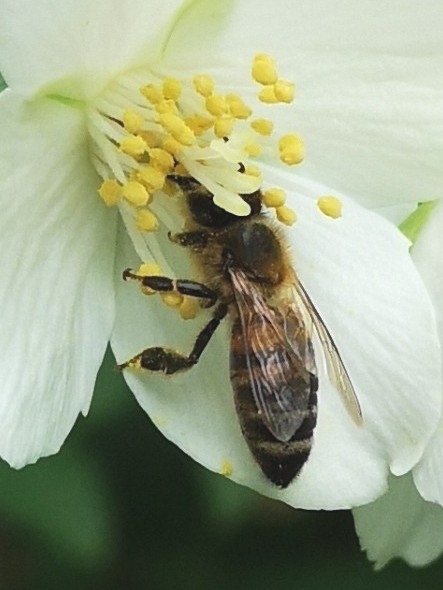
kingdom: Animalia
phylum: Arthropoda
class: Insecta
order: Hymenoptera
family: Apidae
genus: Apis
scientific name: Apis mellifera
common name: Honey bee
